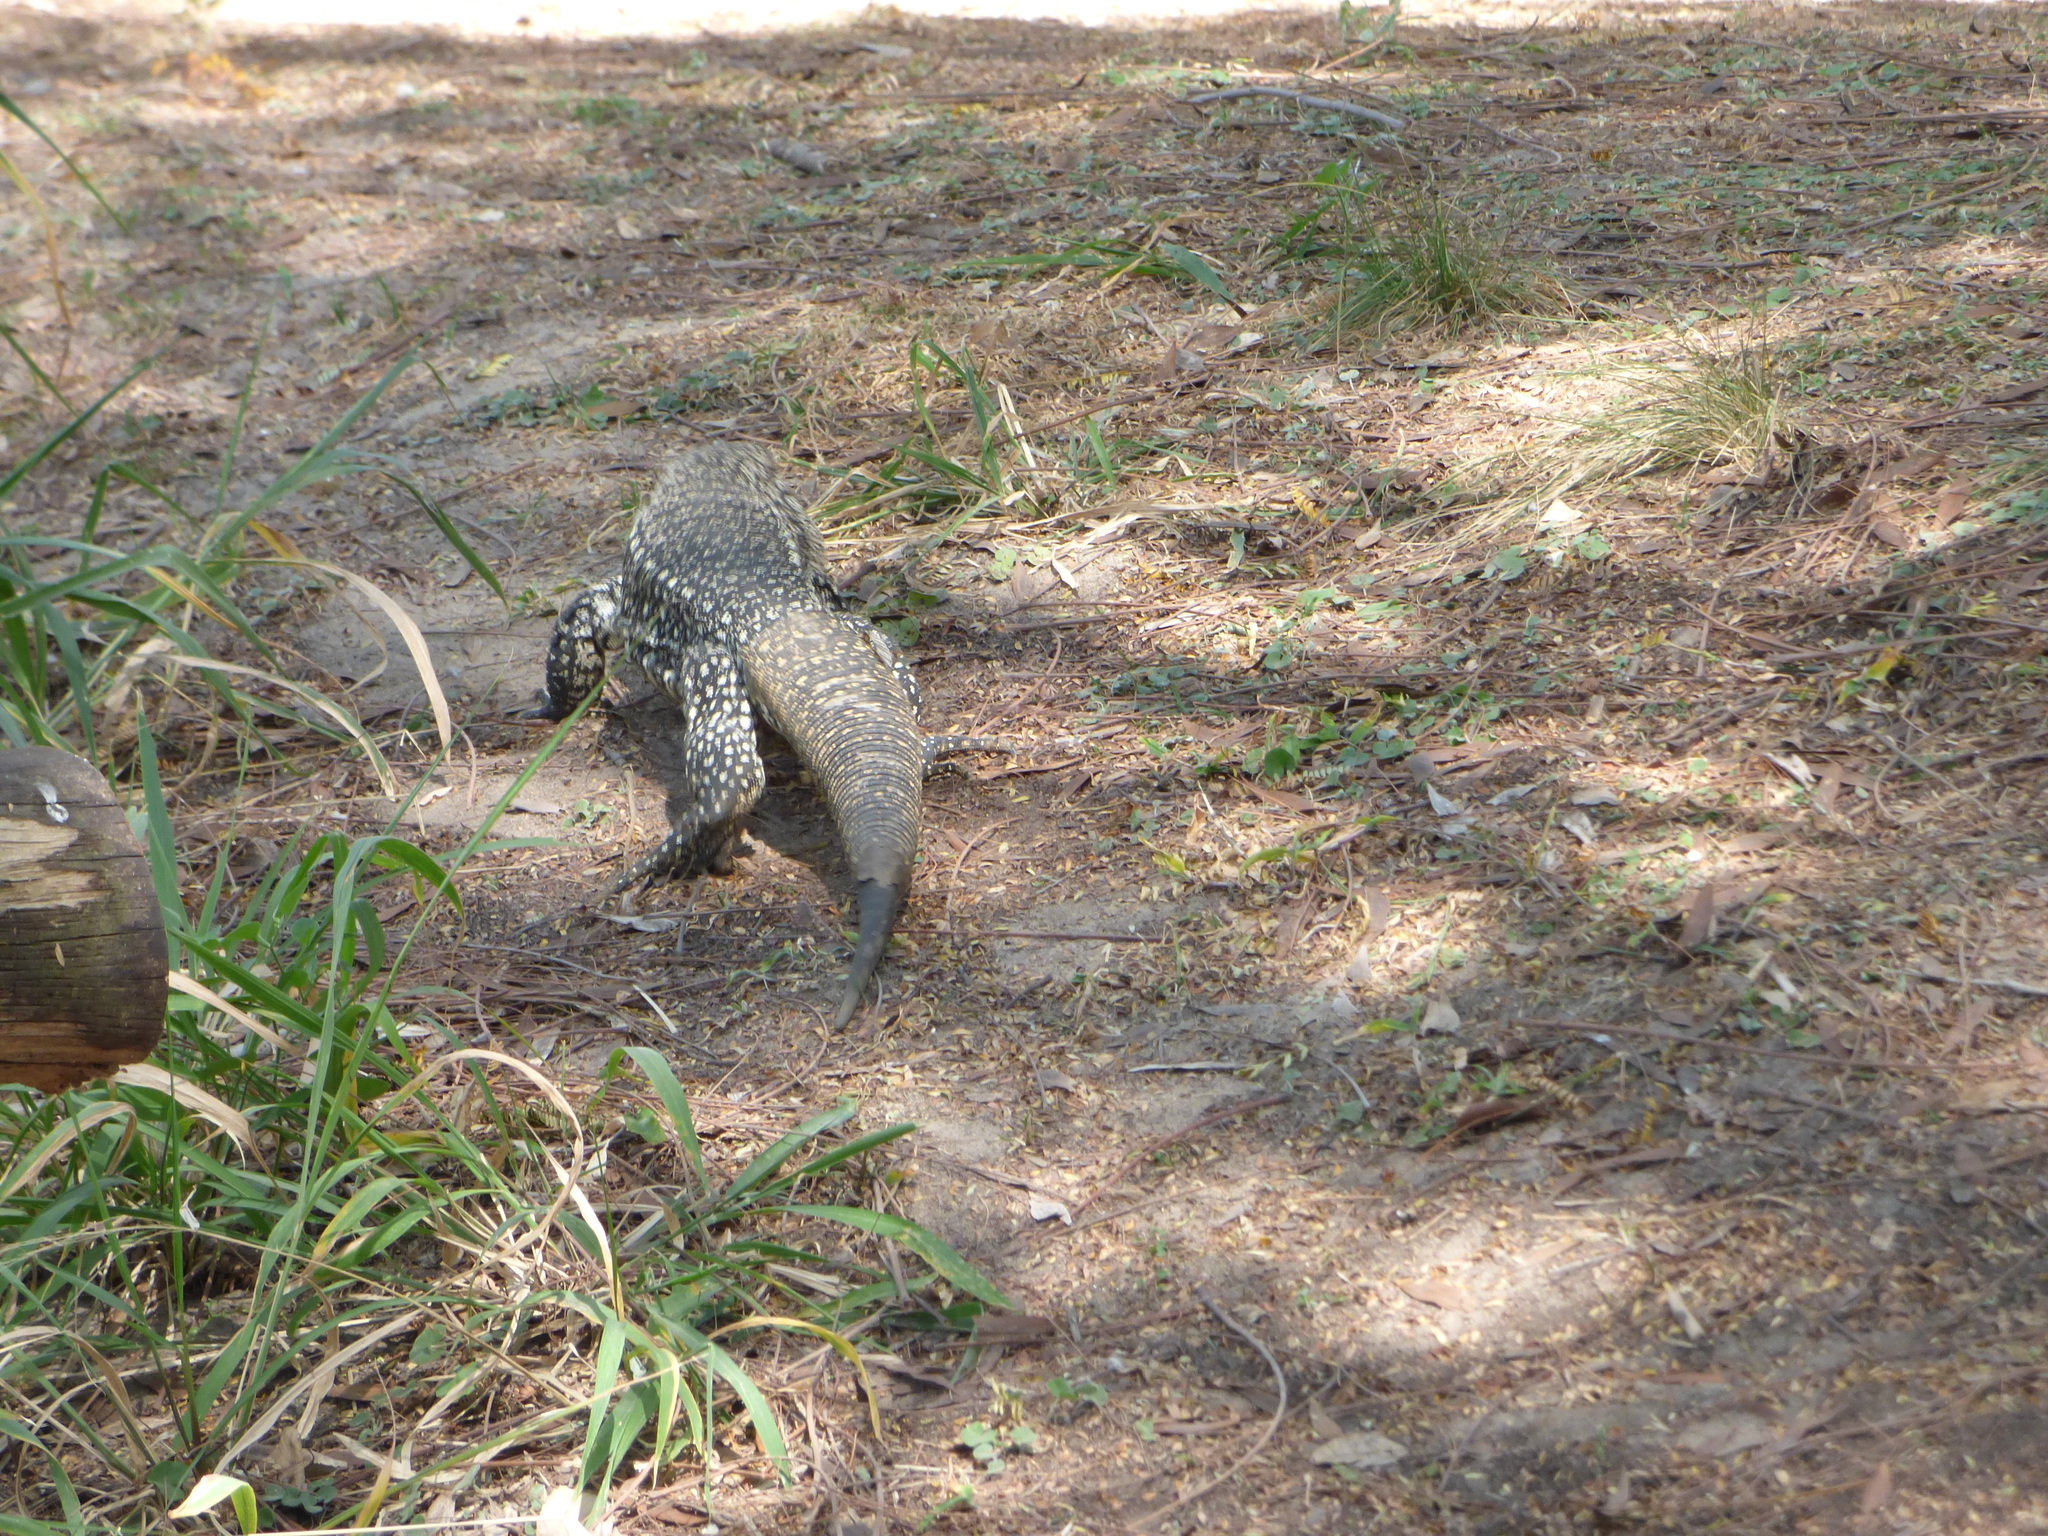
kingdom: Animalia
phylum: Chordata
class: Squamata
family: Teiidae
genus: Salvator
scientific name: Salvator merianae
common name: Argentine black and white tegu
